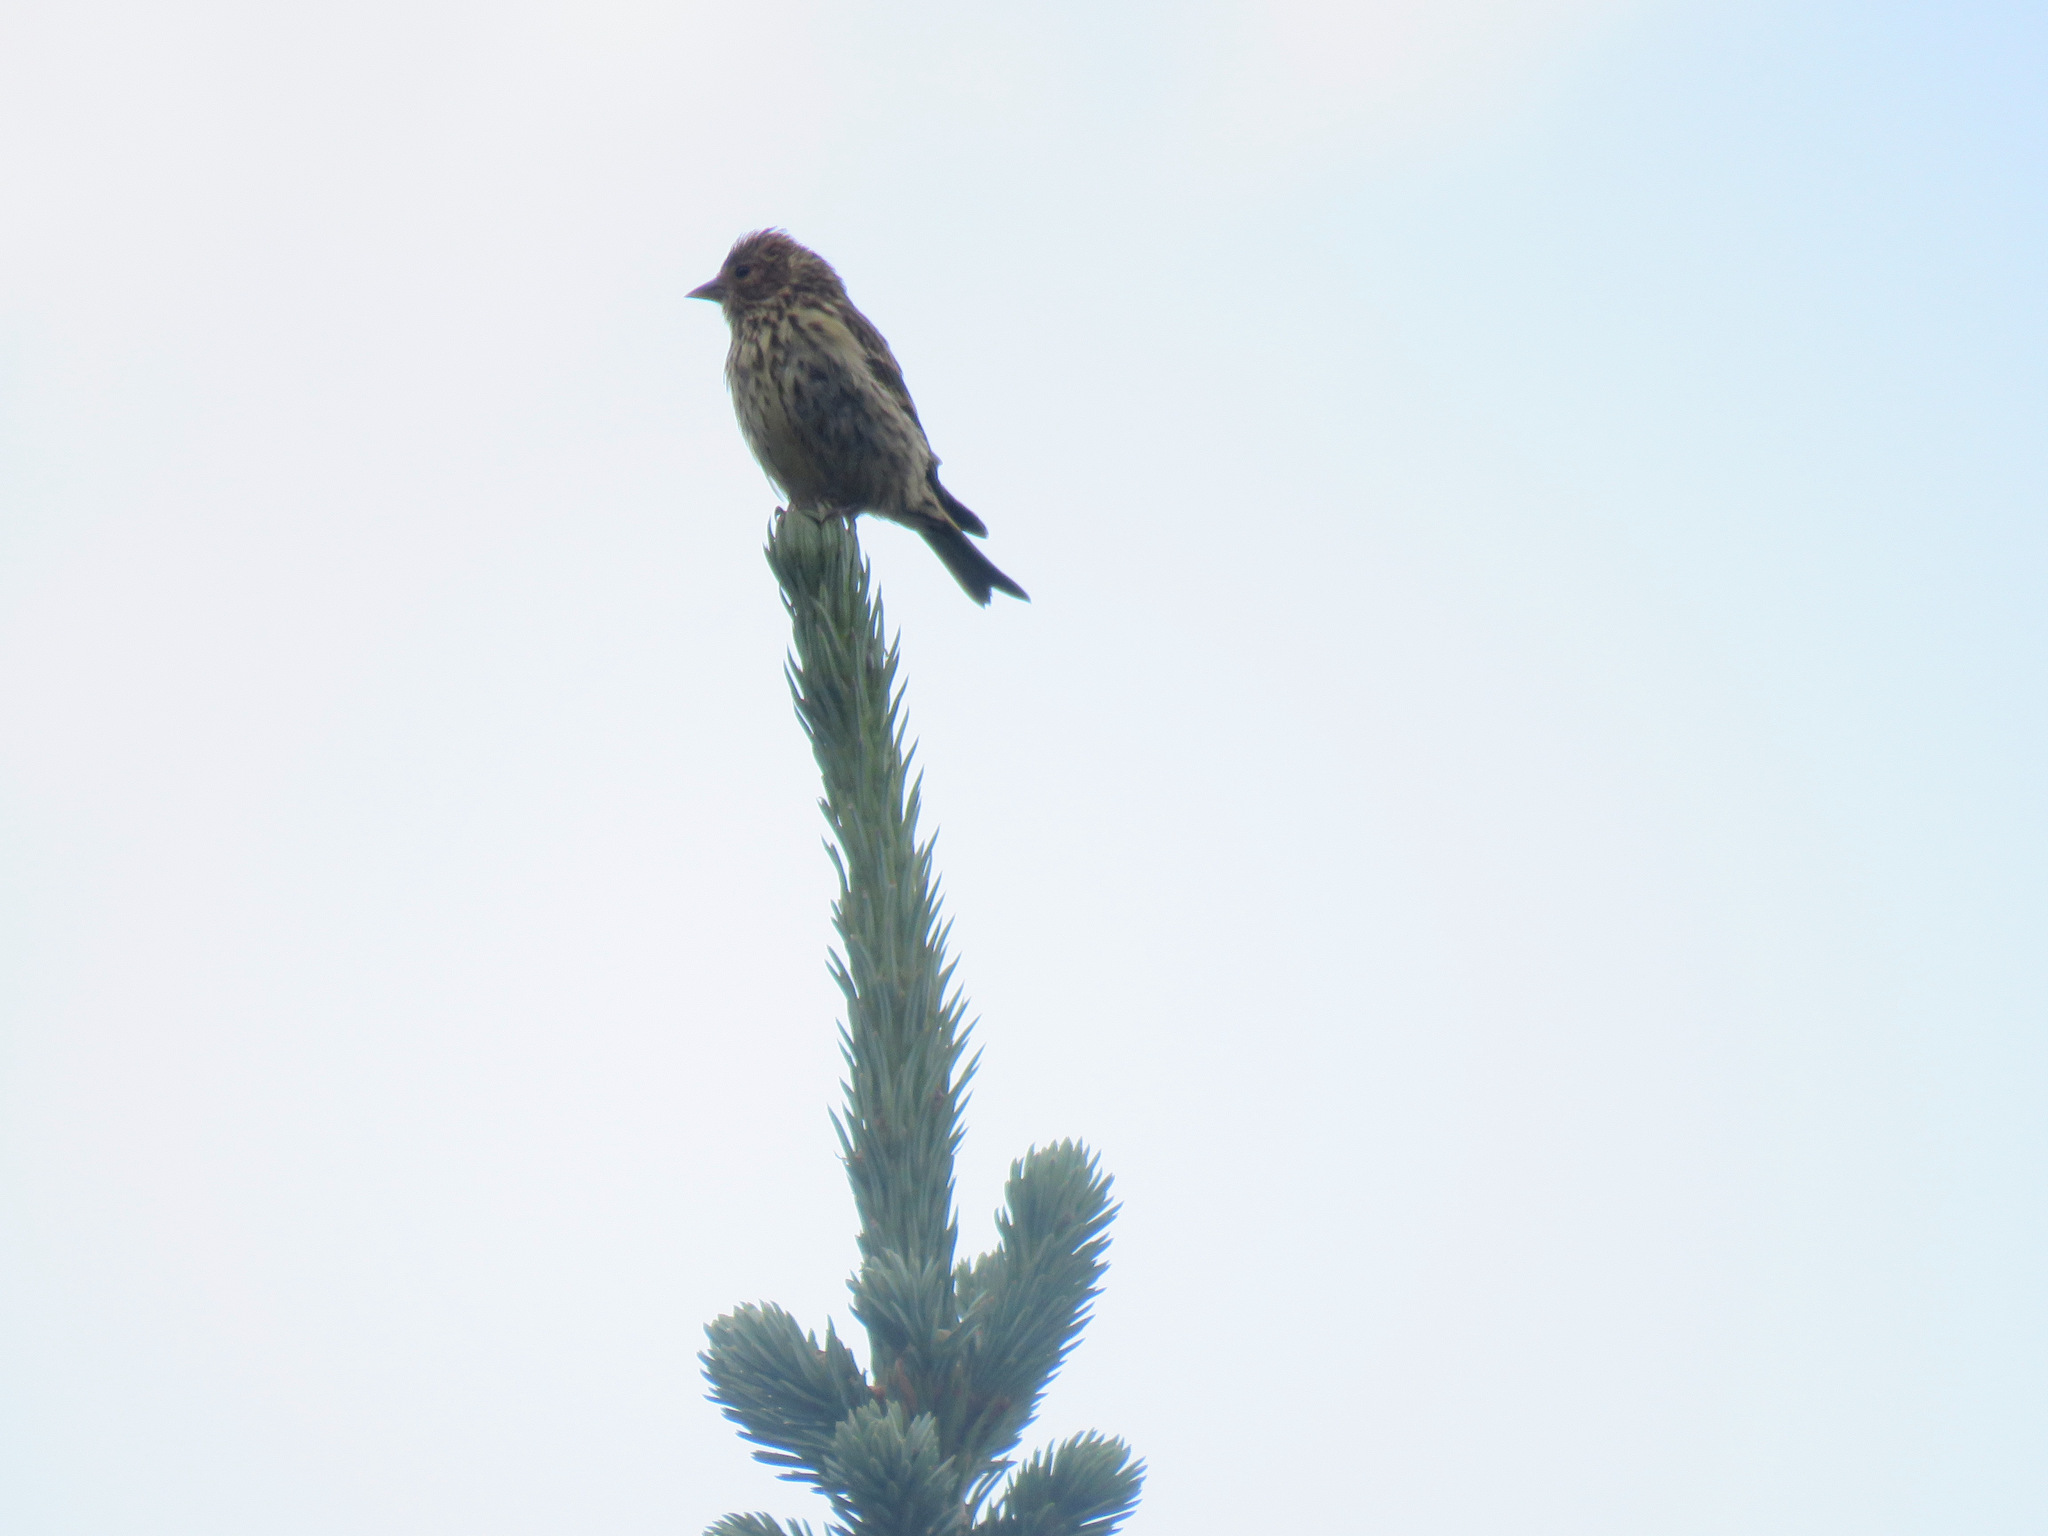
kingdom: Animalia
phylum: Chordata
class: Aves
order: Passeriformes
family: Fringillidae
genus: Spinus
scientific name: Spinus pinus
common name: Pine siskin
